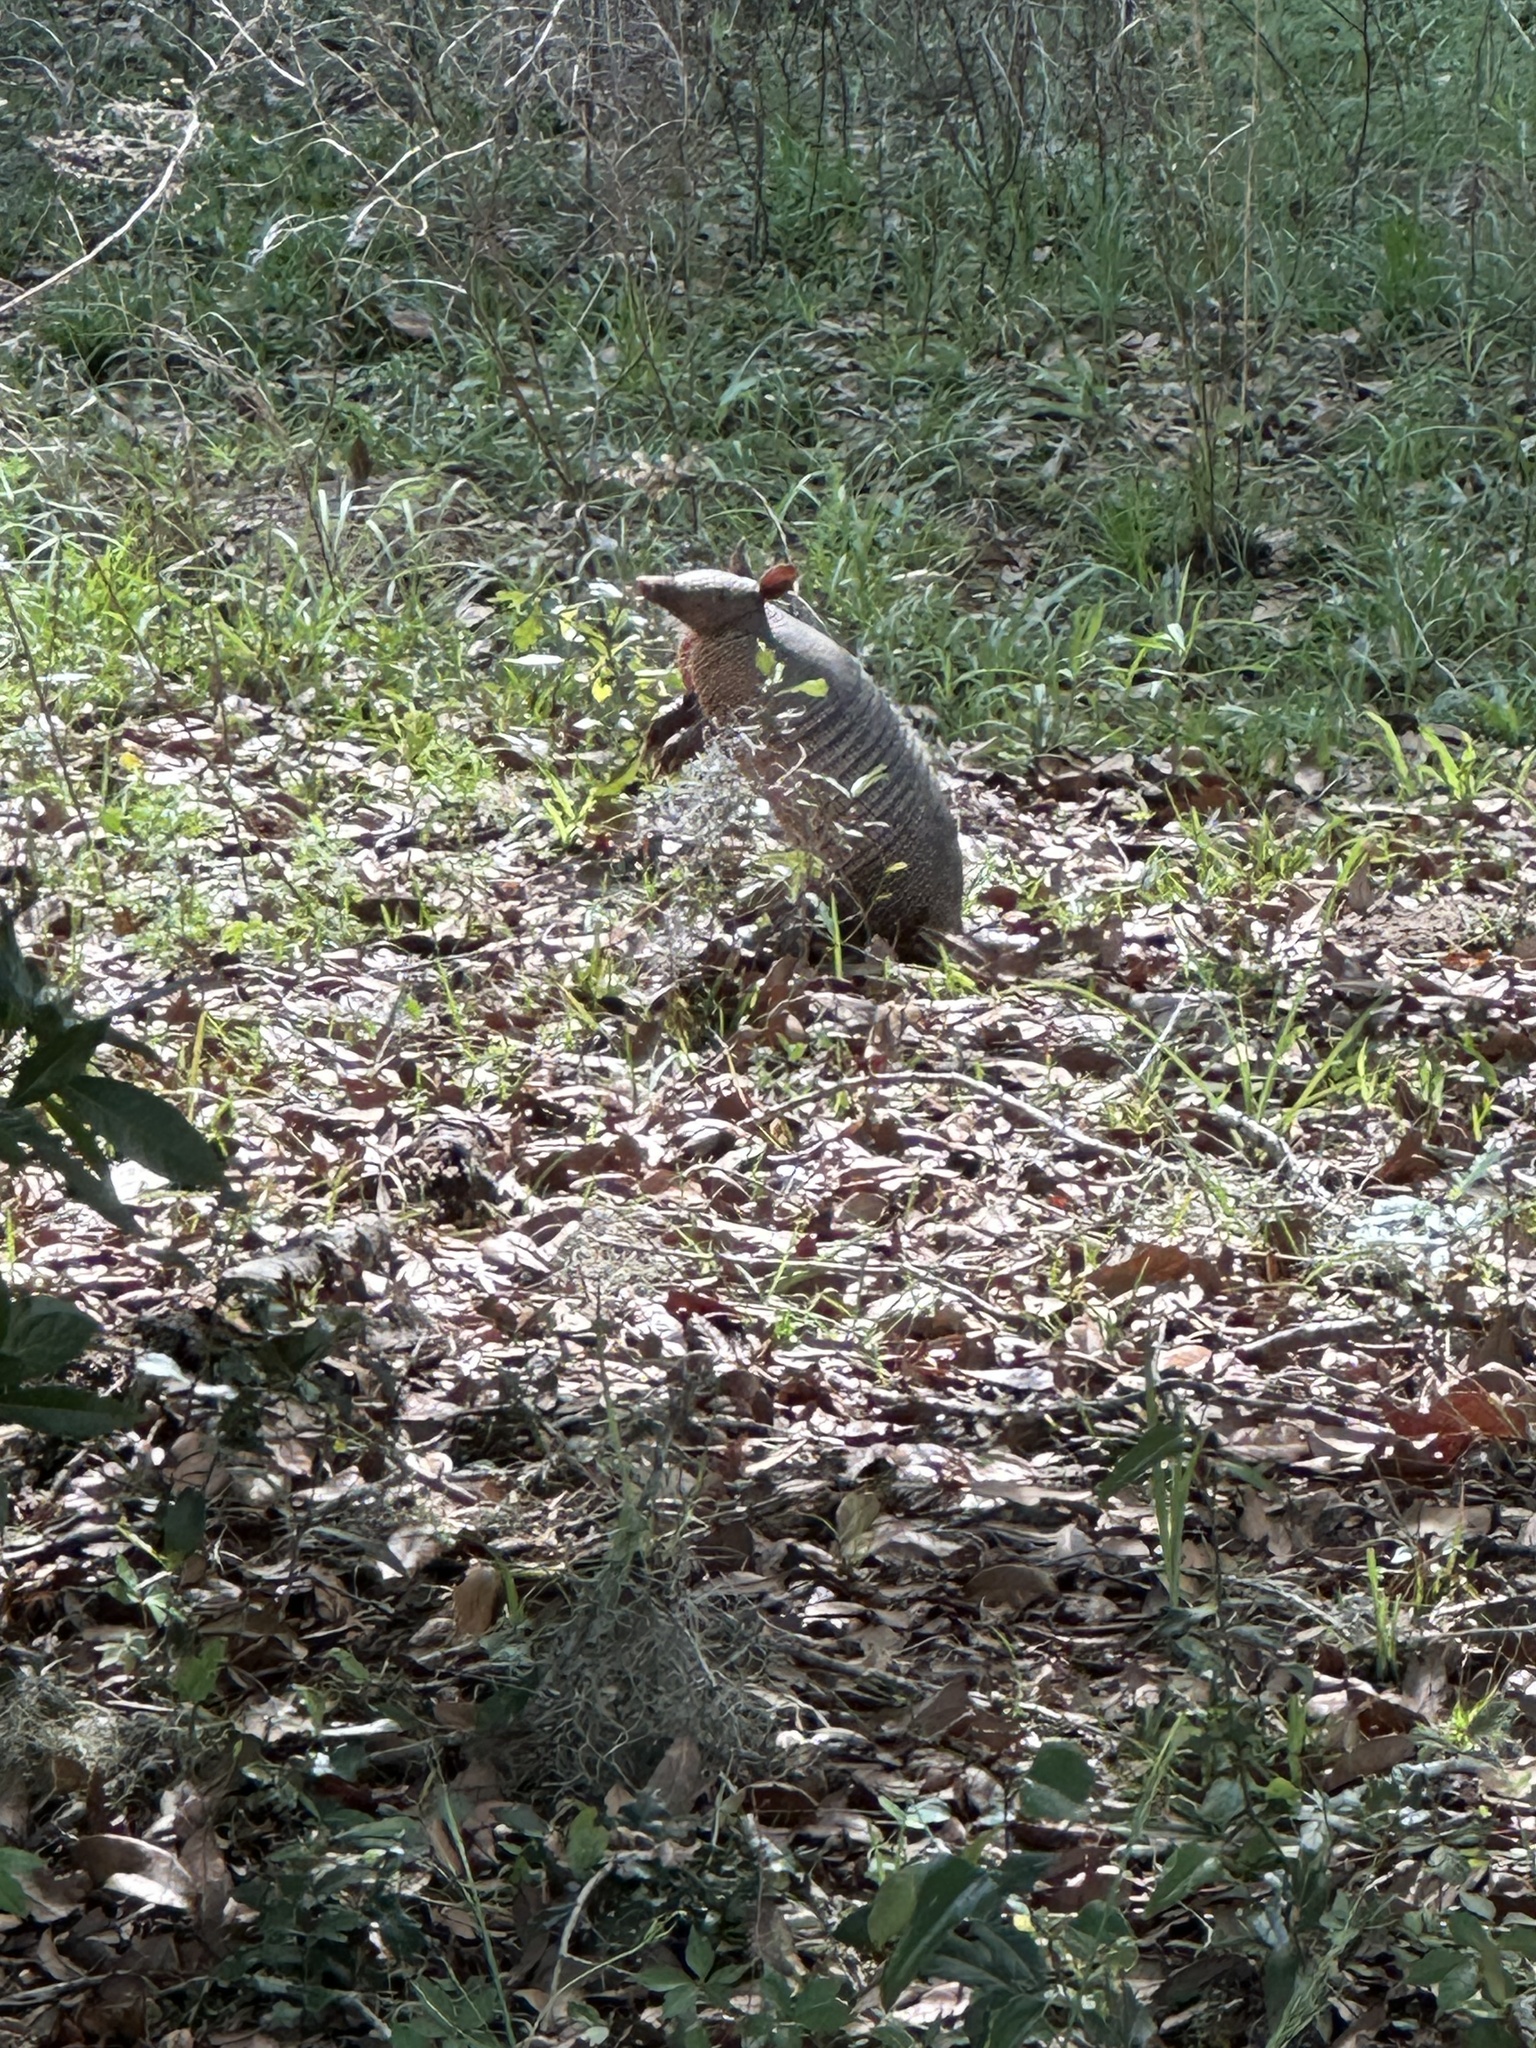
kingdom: Animalia
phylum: Chordata
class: Mammalia
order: Cingulata
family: Dasypodidae
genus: Dasypus
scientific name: Dasypus novemcinctus
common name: Nine-banded armadillo
